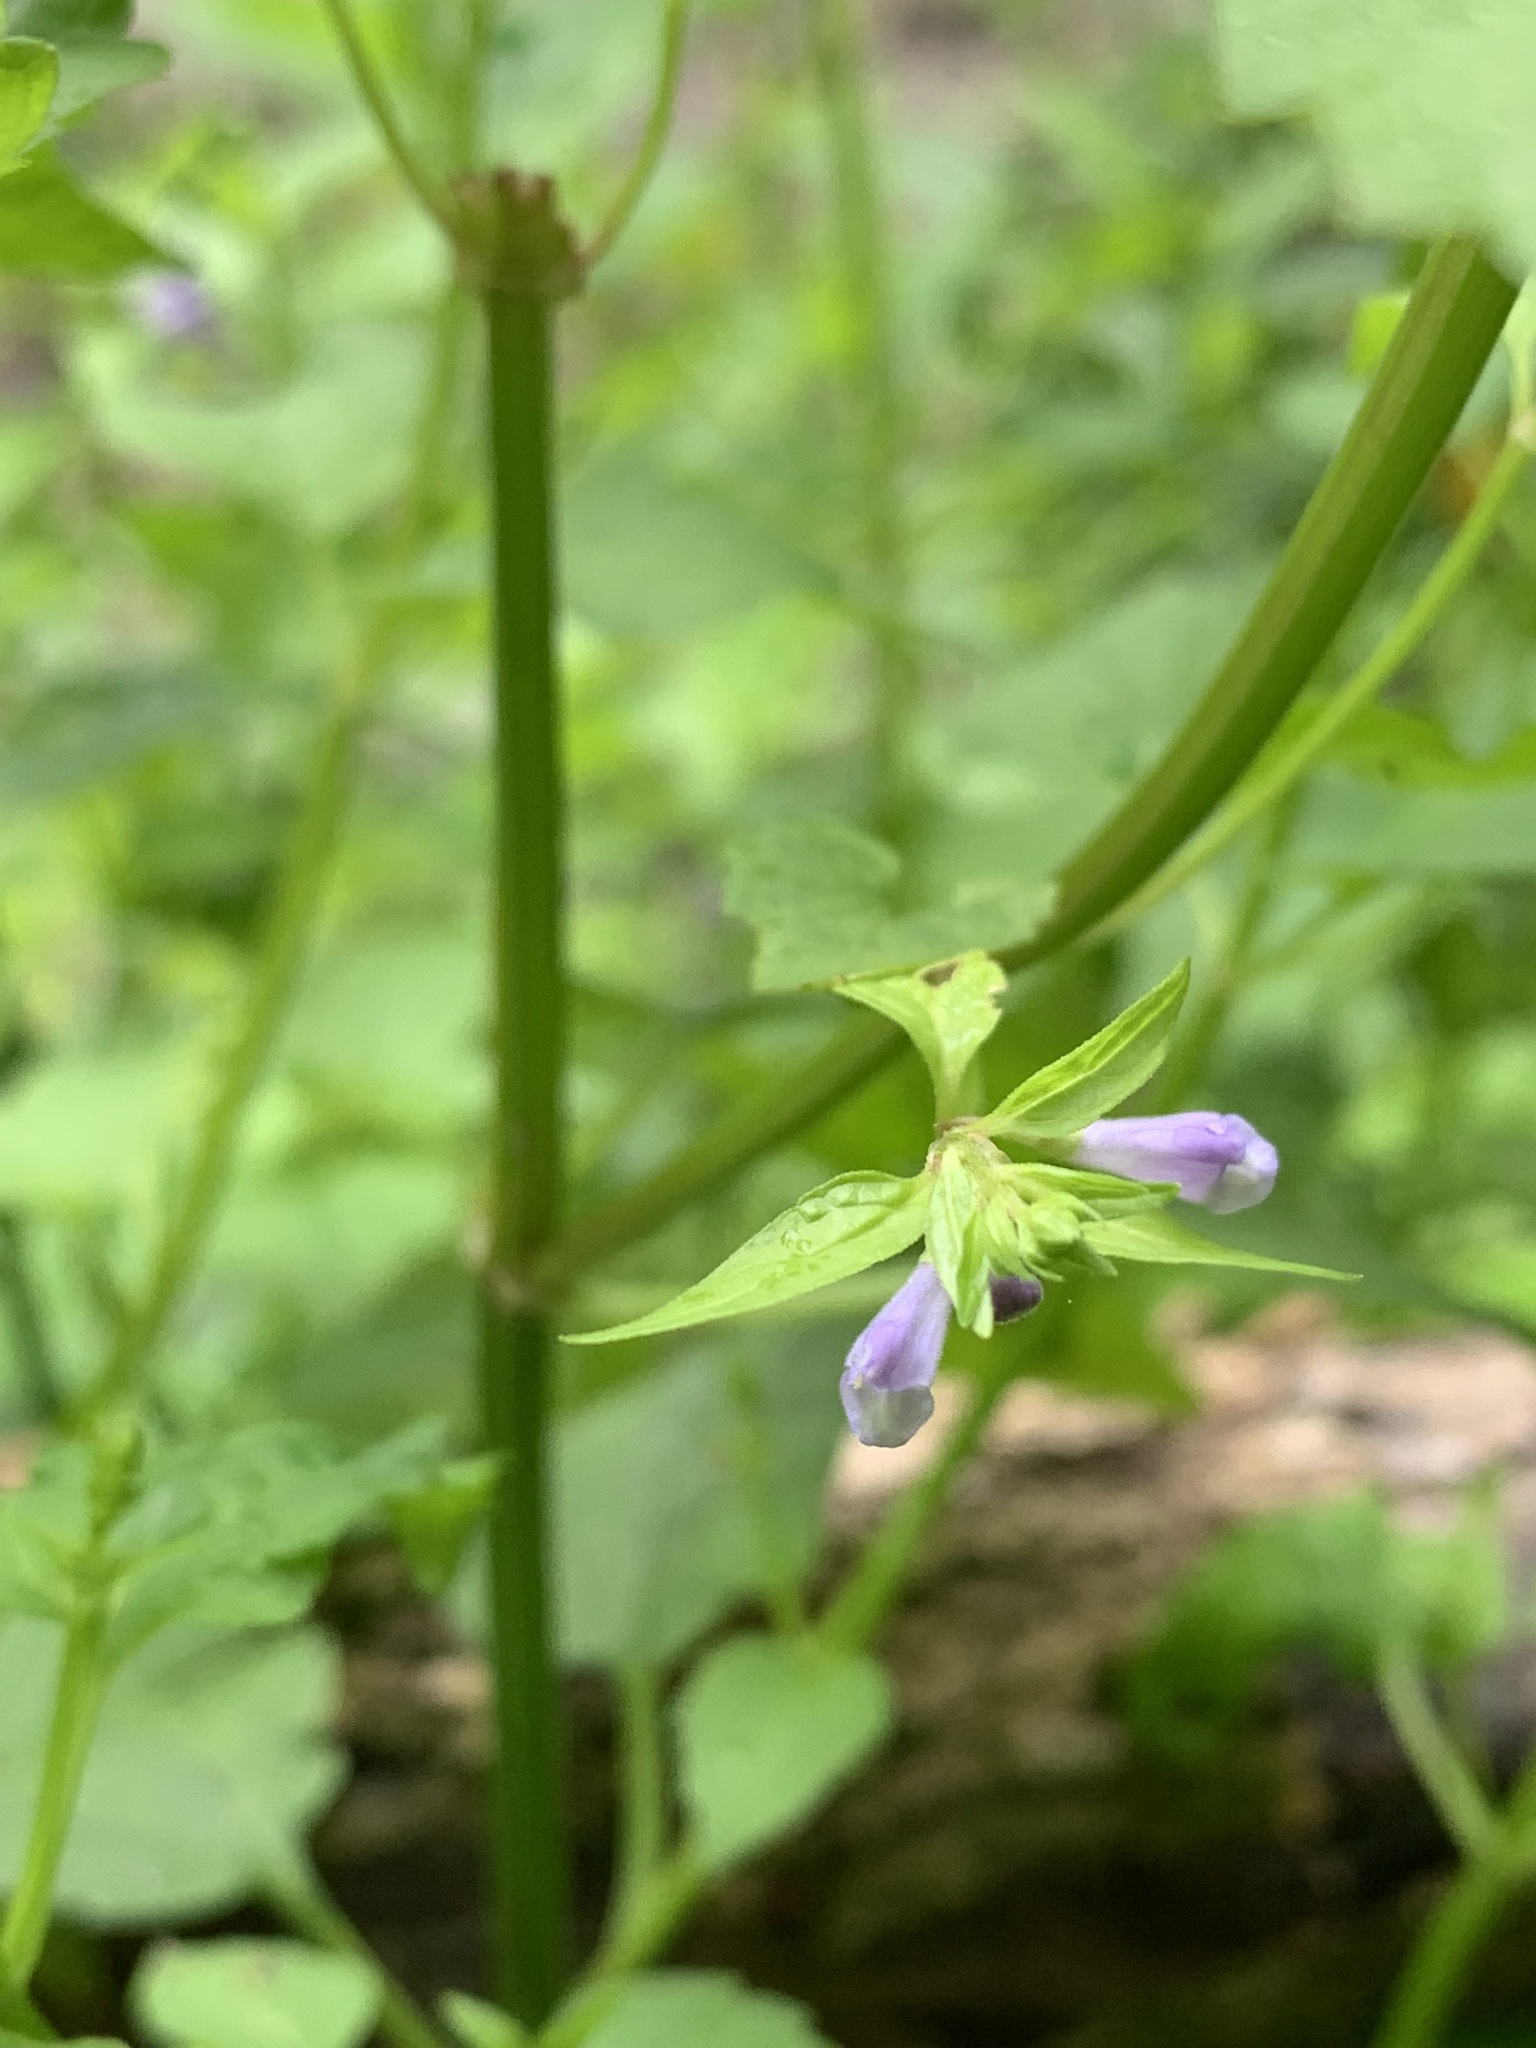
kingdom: Plantae
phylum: Tracheophyta
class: Magnoliopsida
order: Lamiales
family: Lamiaceae
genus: Scutellaria
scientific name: Scutellaria lateriflora
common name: Blue skullcap
